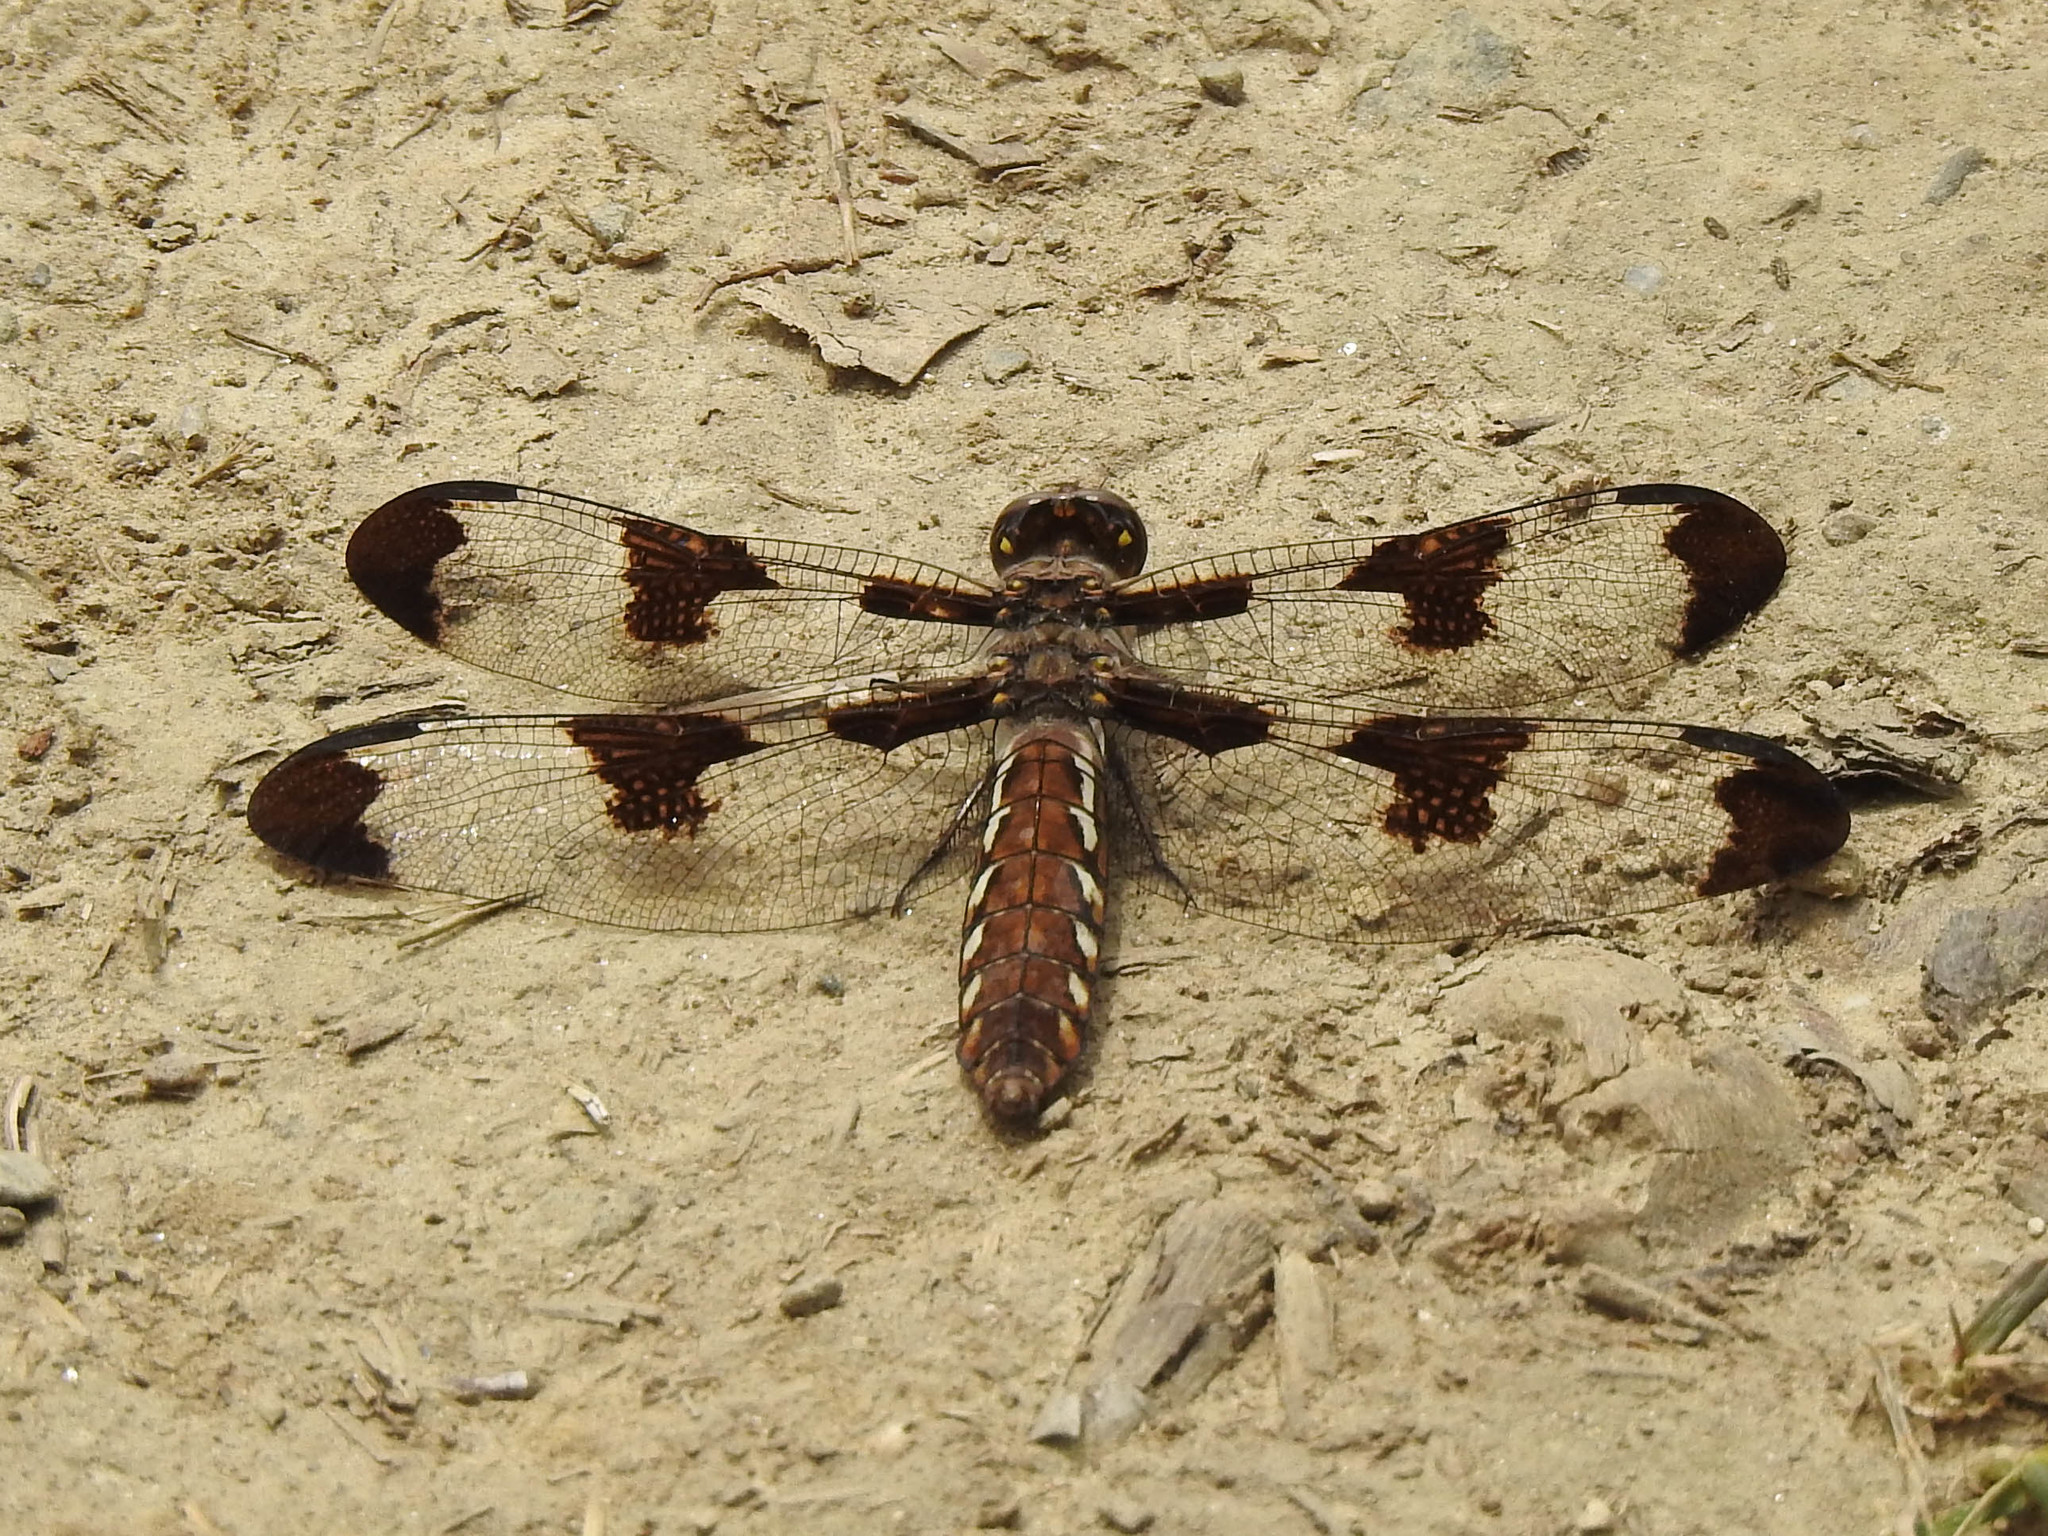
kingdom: Animalia
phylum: Arthropoda
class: Insecta
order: Odonata
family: Libellulidae
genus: Plathemis
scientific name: Plathemis lydia
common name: Common whitetail
